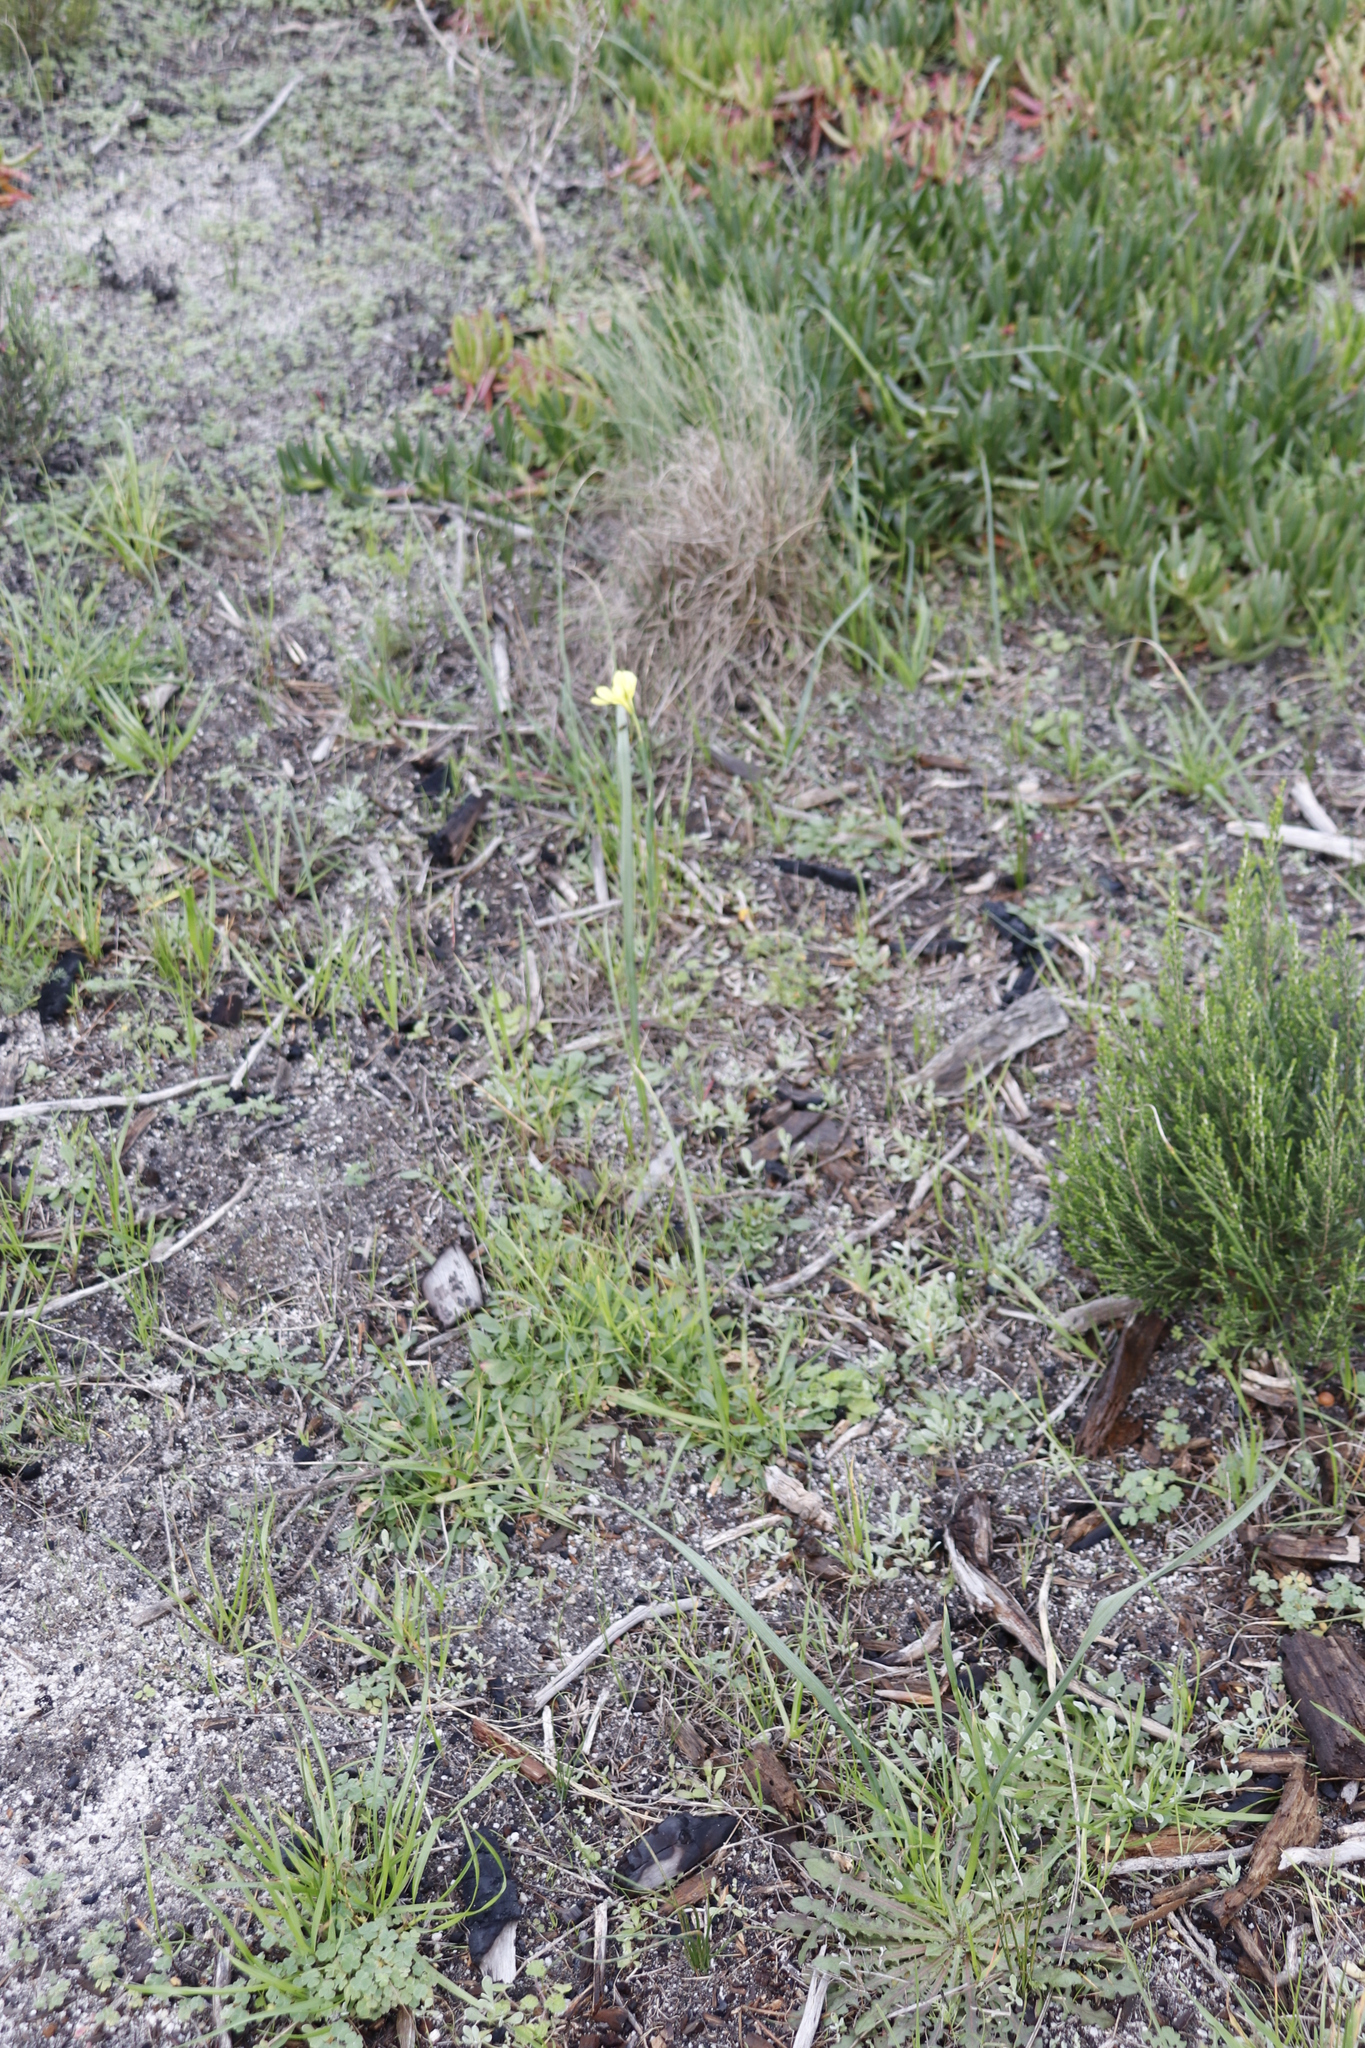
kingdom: Plantae
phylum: Tracheophyta
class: Liliopsida
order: Asparagales
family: Iridaceae
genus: Moraea
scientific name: Moraea collina
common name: Cape-tulip
